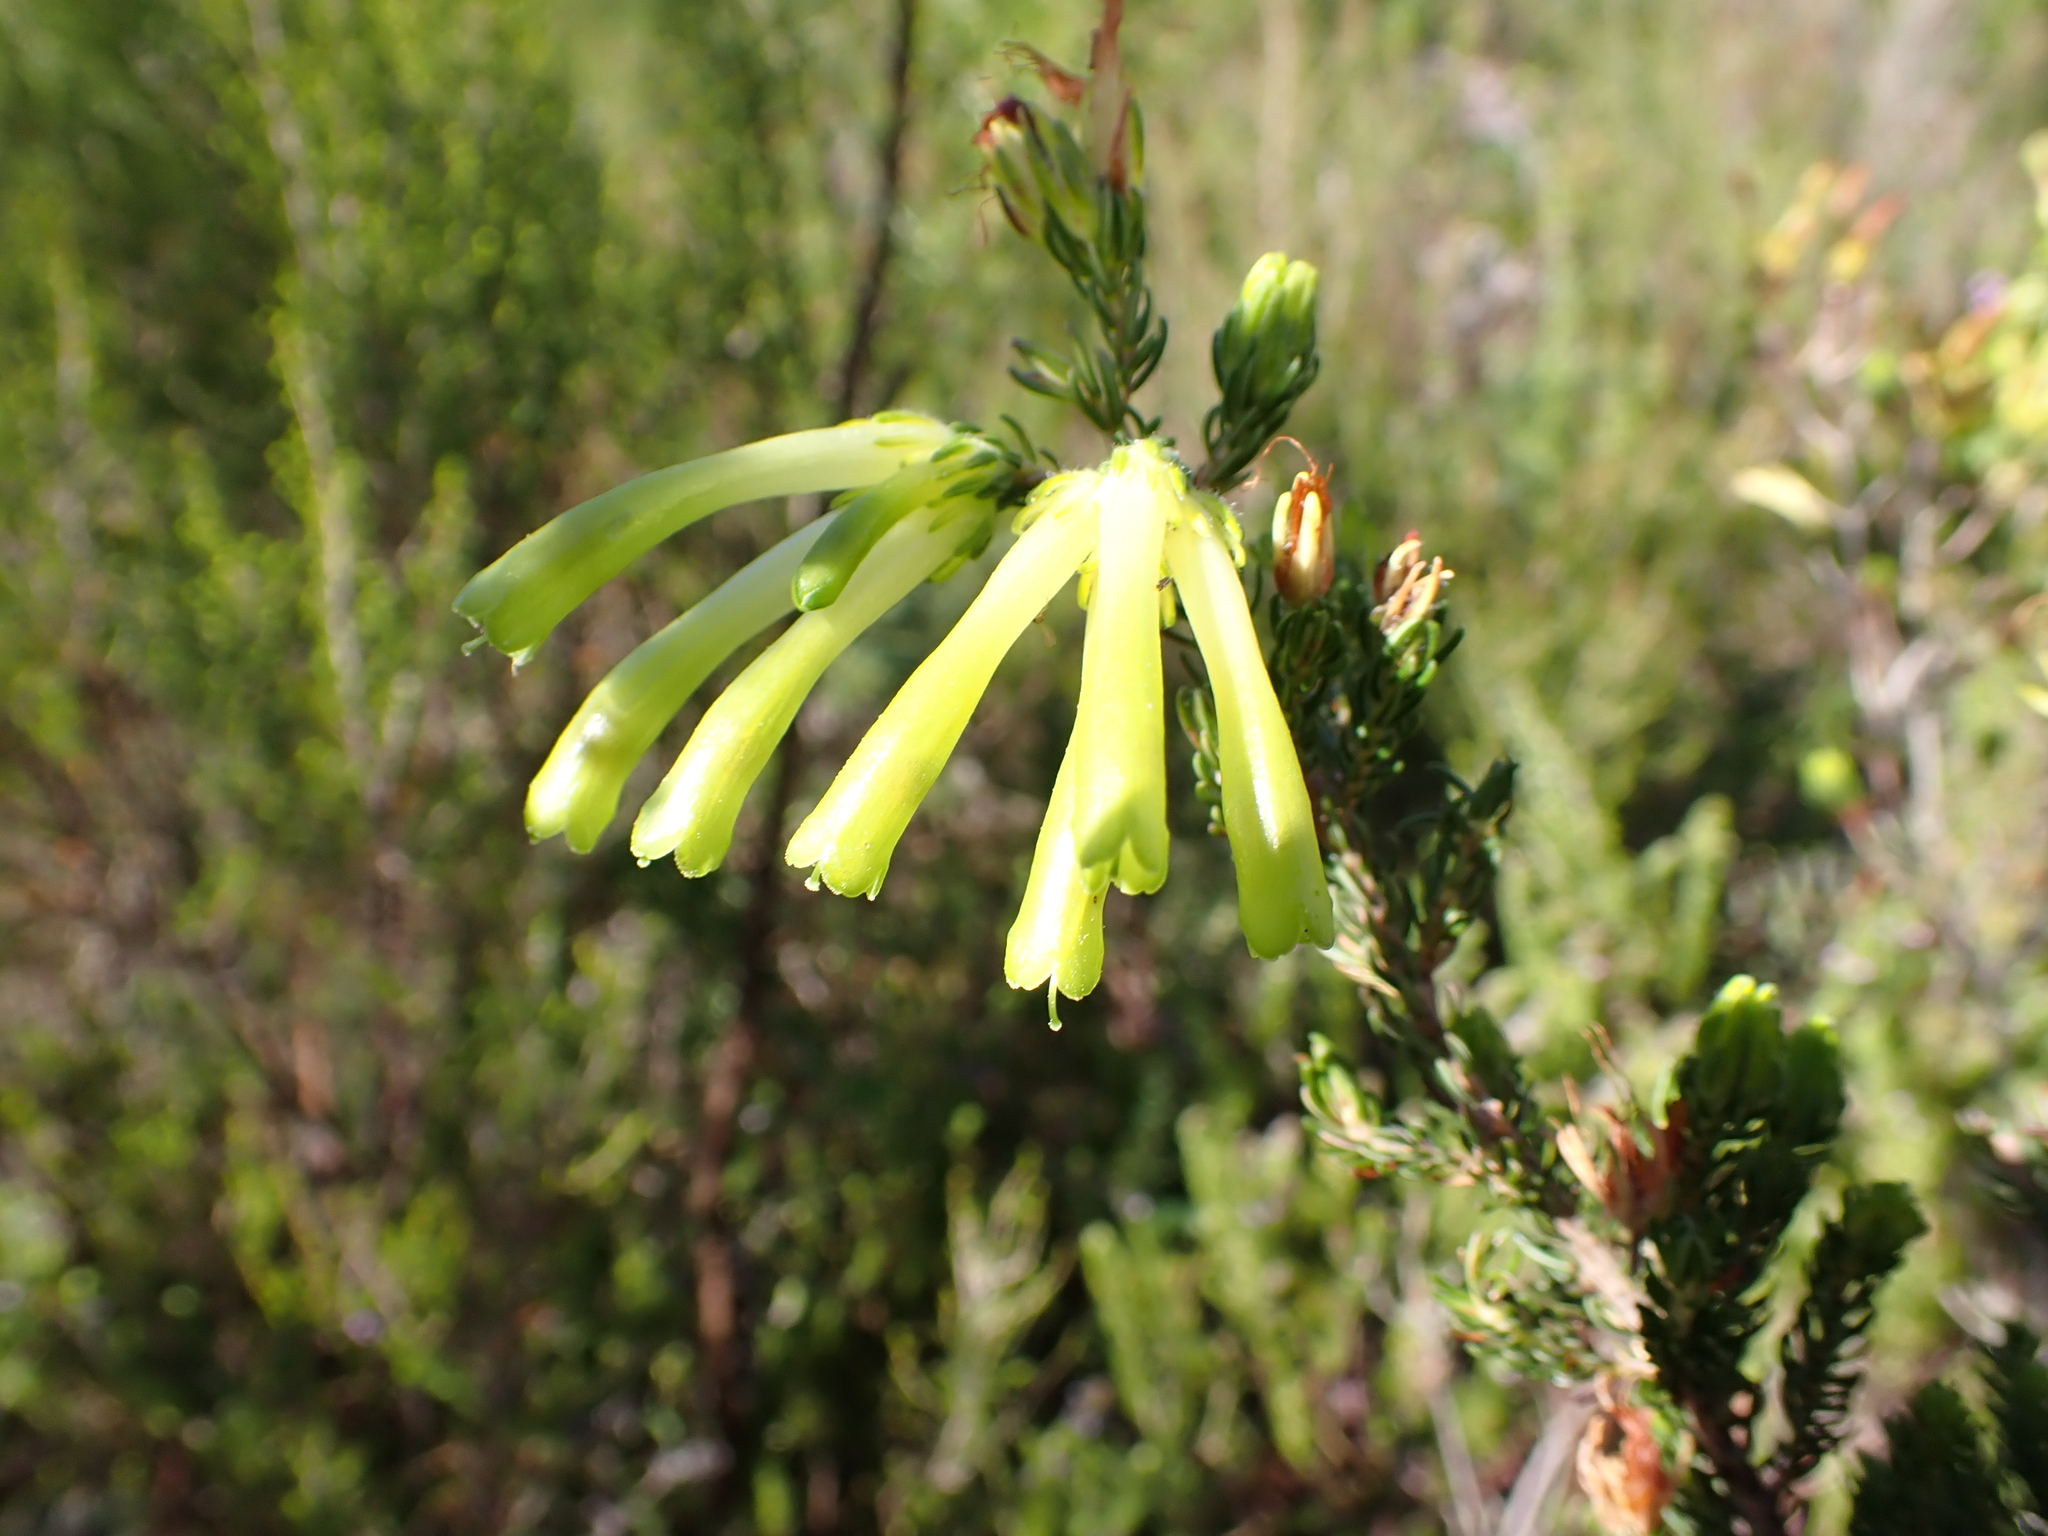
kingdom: Plantae
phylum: Tracheophyta
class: Magnoliopsida
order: Ericales
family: Ericaceae
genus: Erica
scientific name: Erica unicolor
